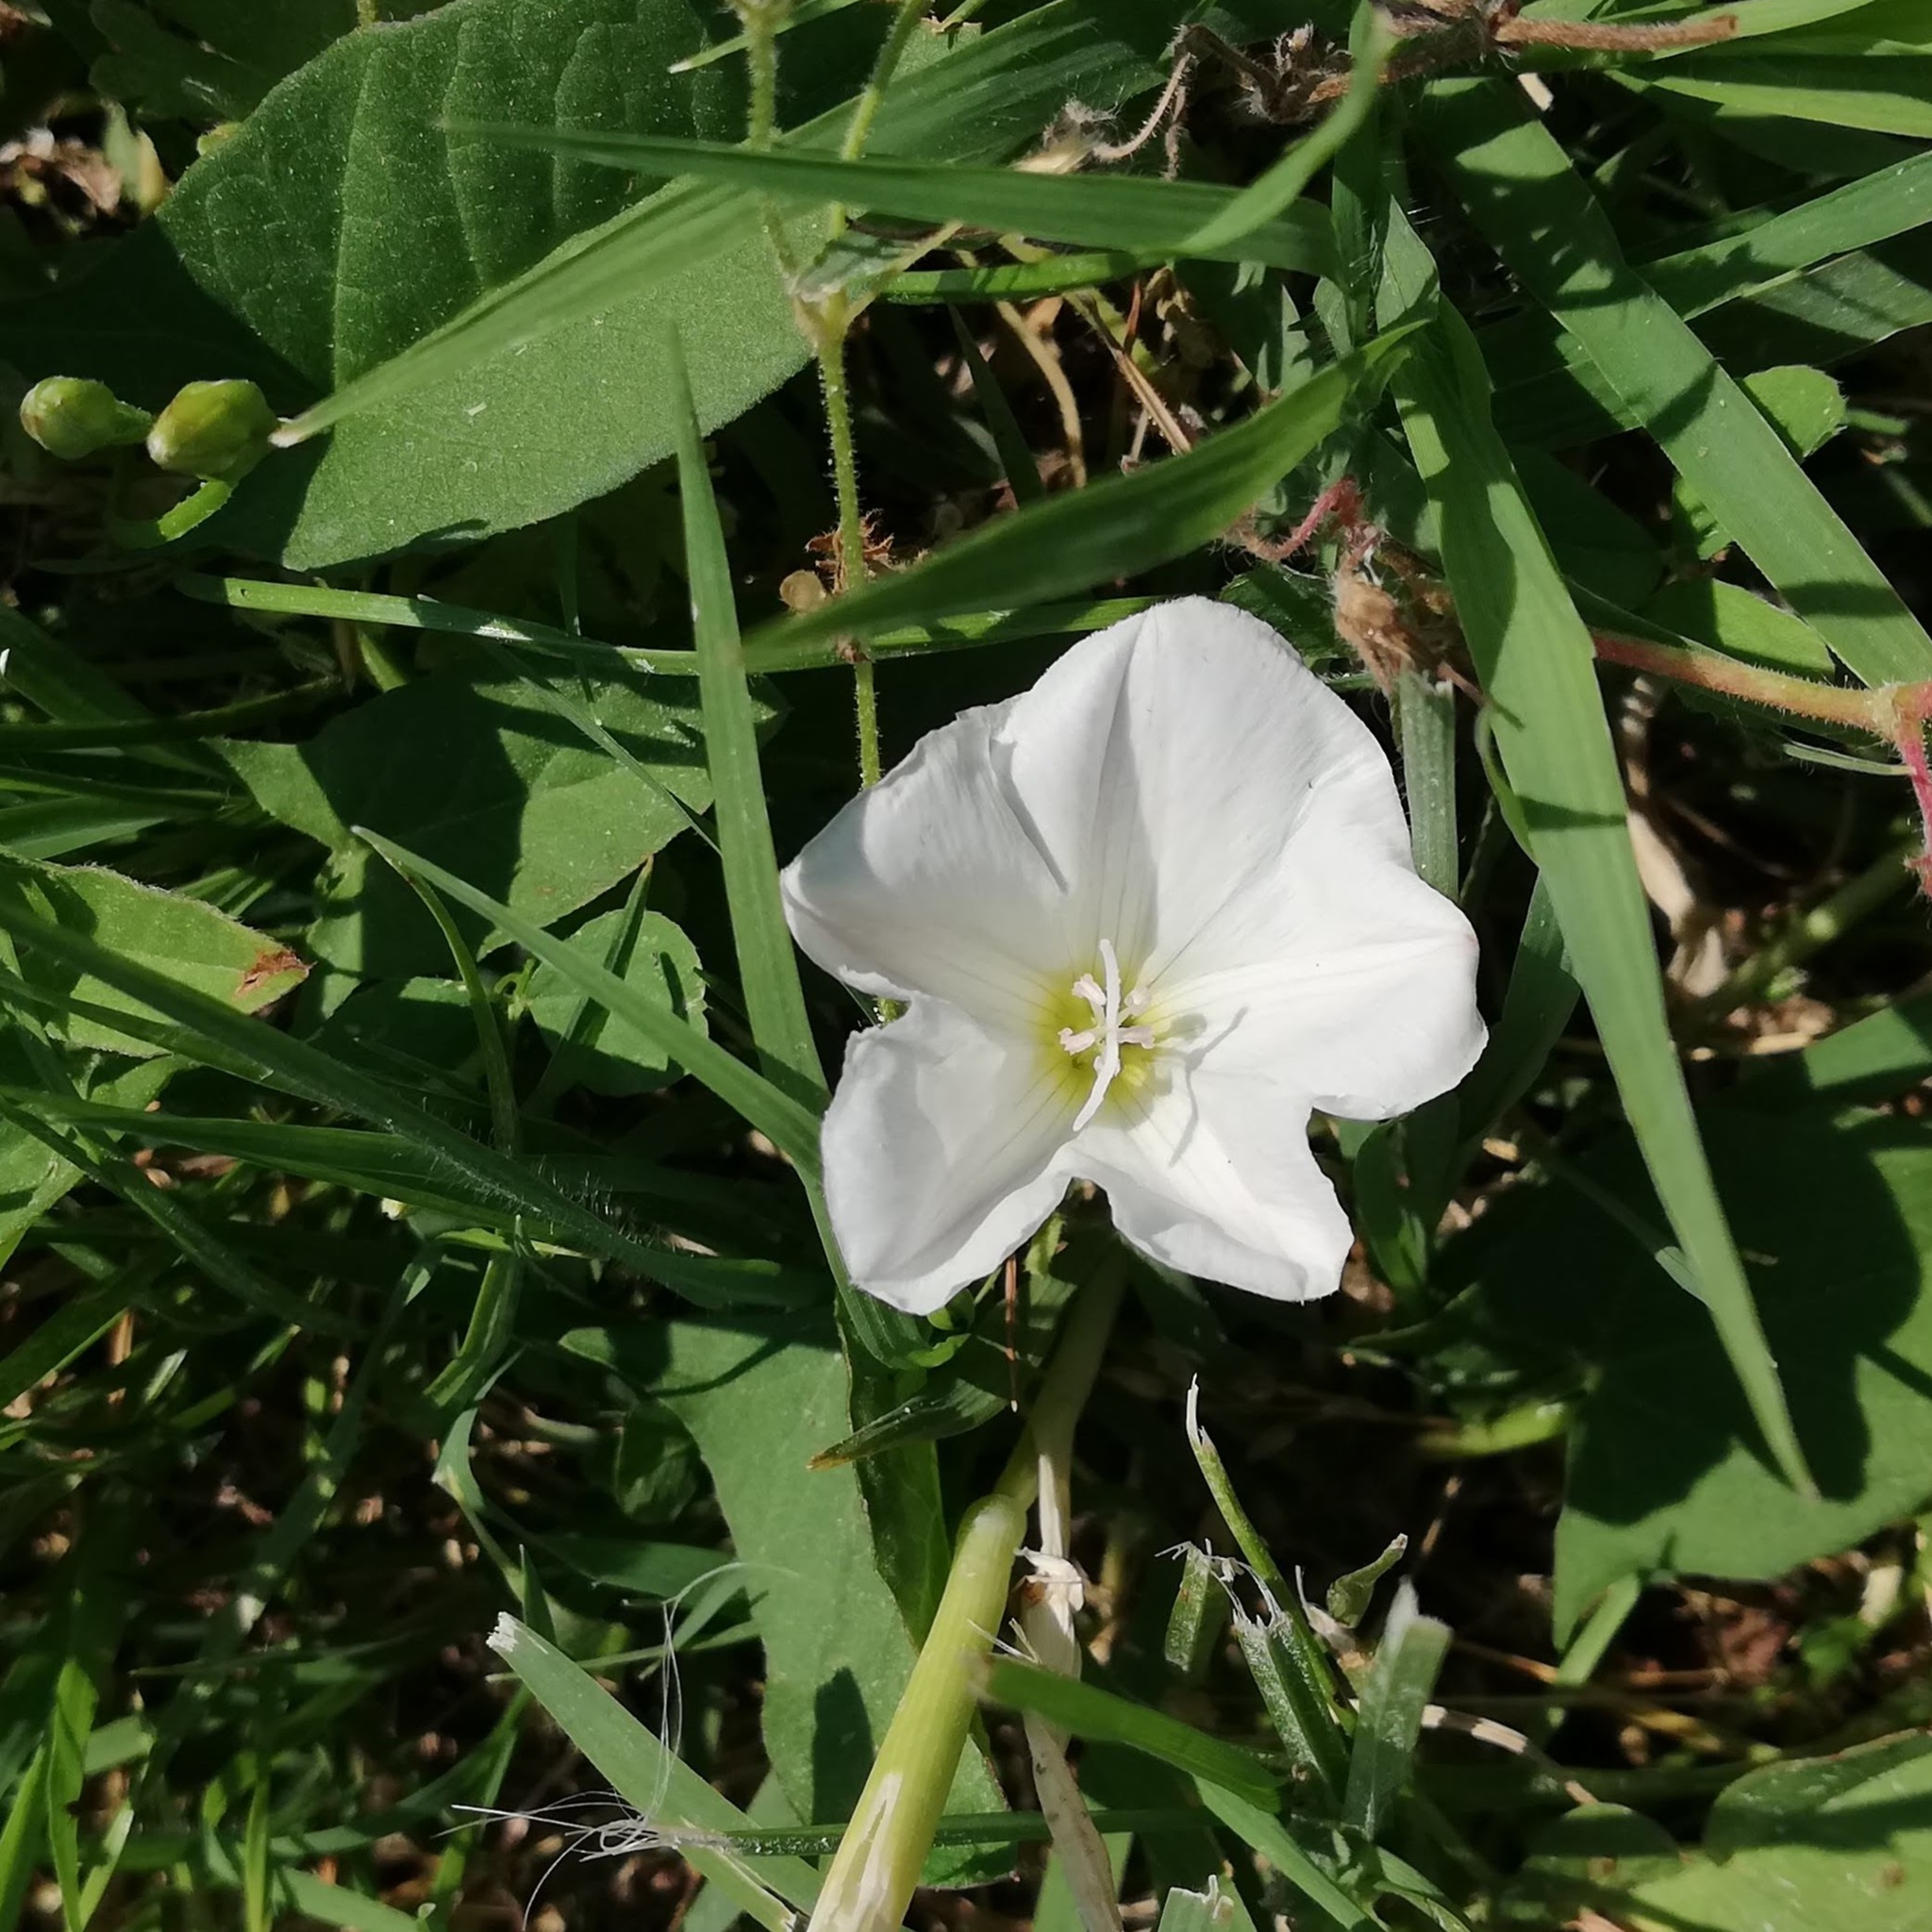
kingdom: Plantae
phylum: Tracheophyta
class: Magnoliopsida
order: Solanales
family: Convolvulaceae
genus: Convolvulus
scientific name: Convolvulus arvensis
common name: Field bindweed
